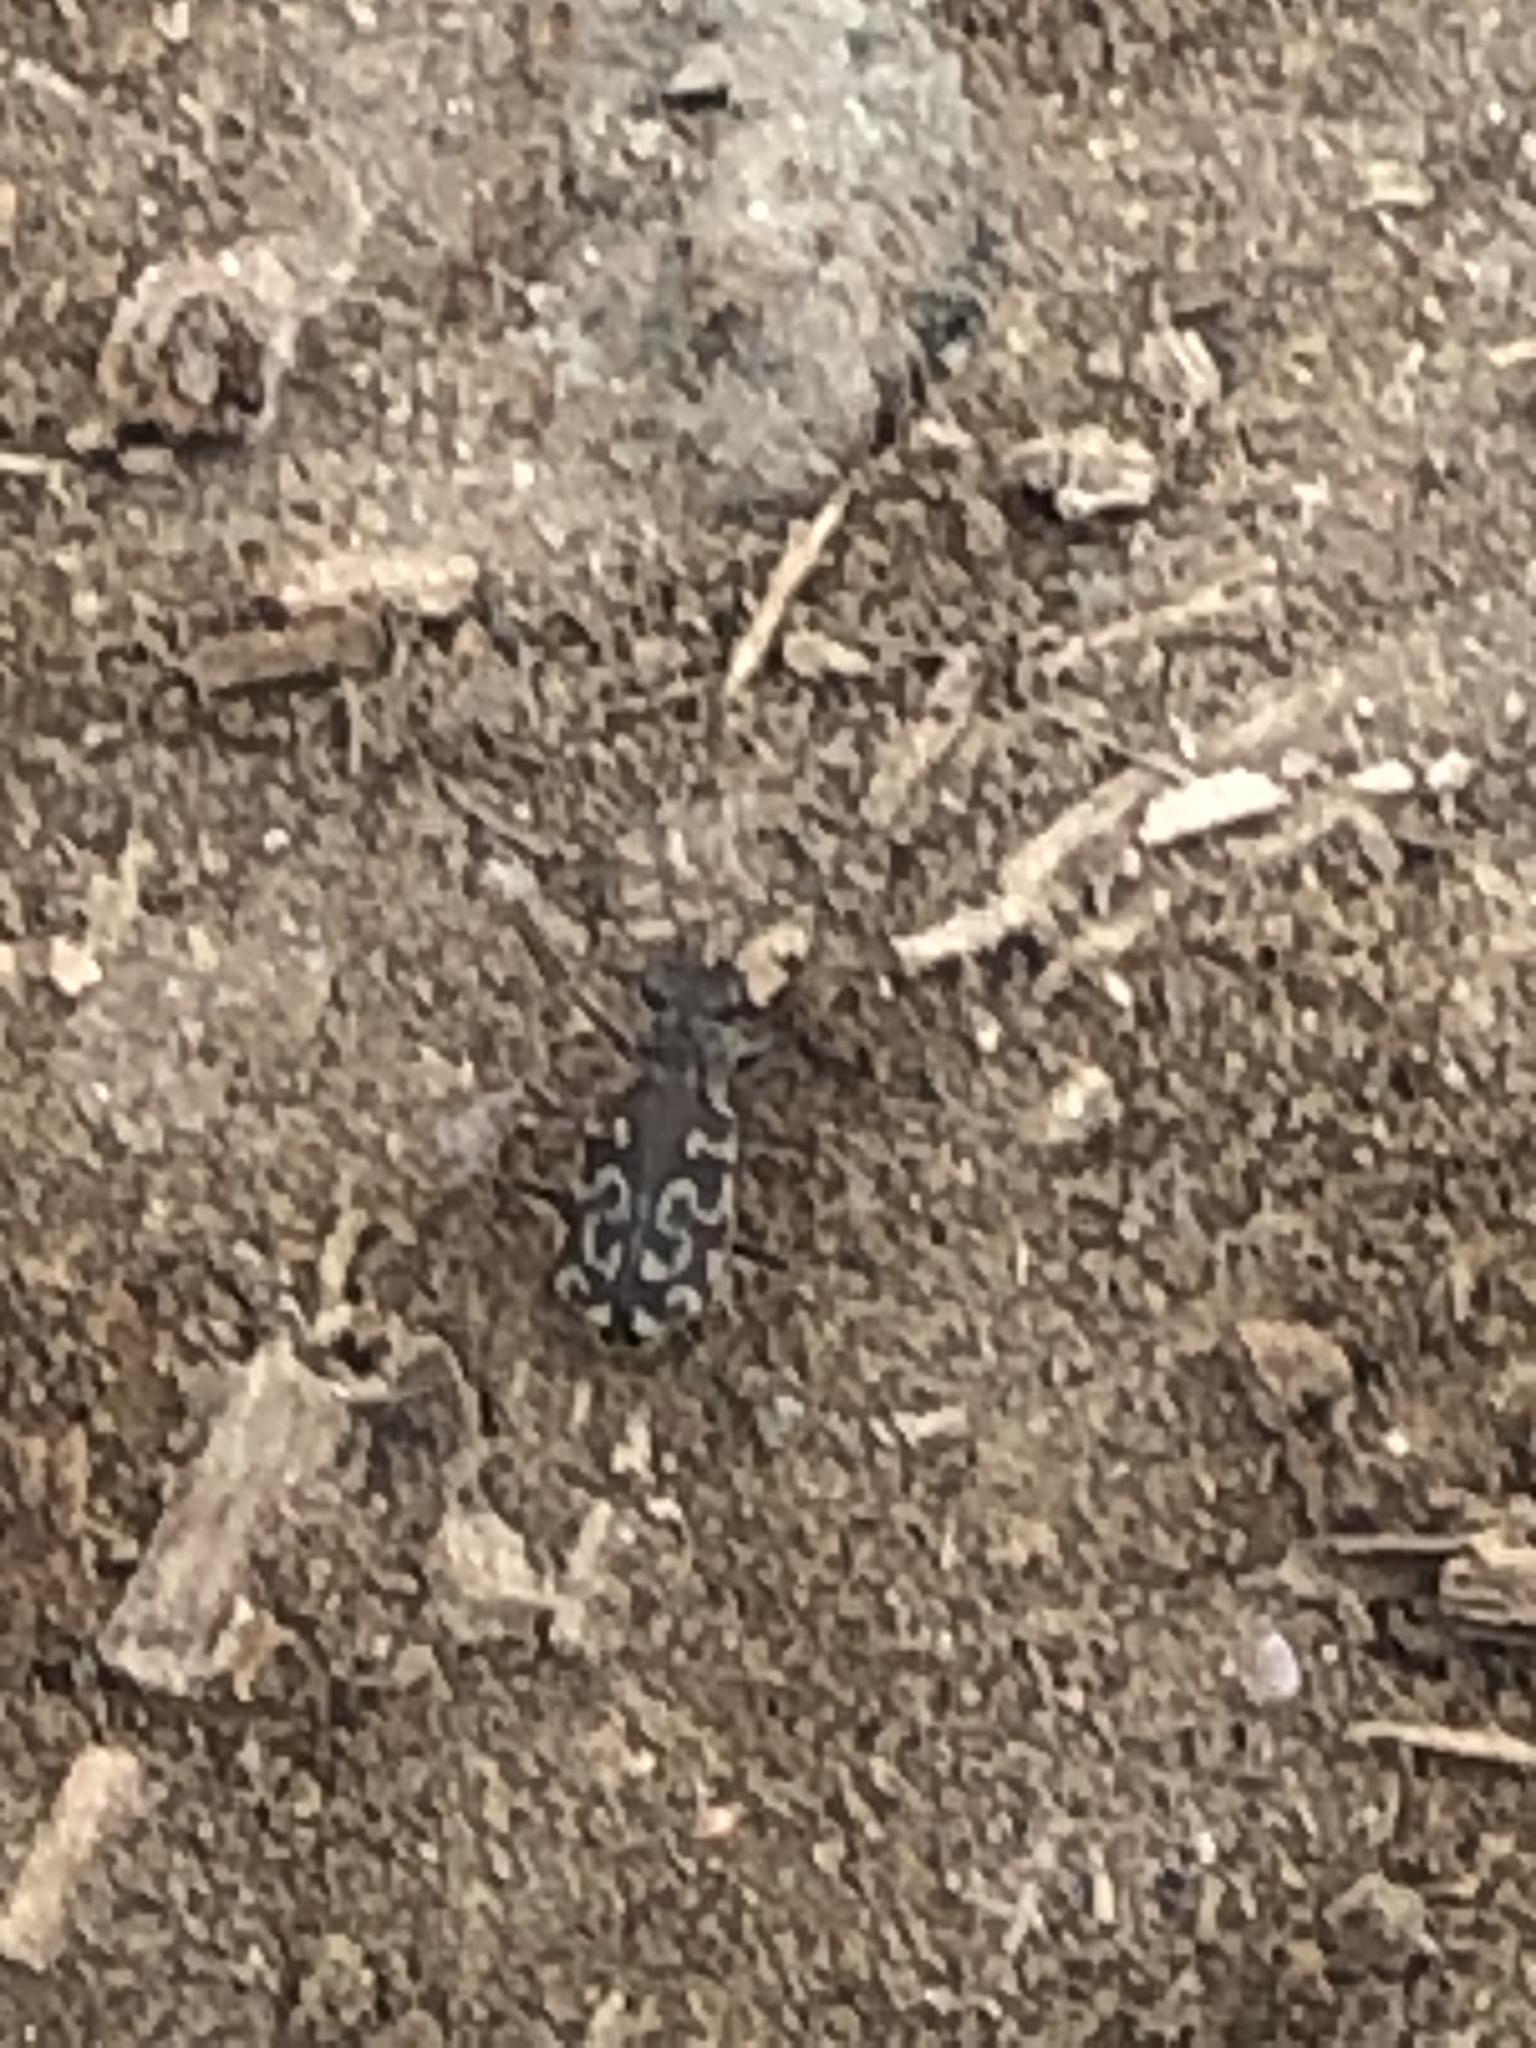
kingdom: Animalia
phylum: Arthropoda
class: Insecta
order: Coleoptera
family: Carabidae
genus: Cicindela
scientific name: Cicindela trifasciata
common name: Mudflat tiger beetle
